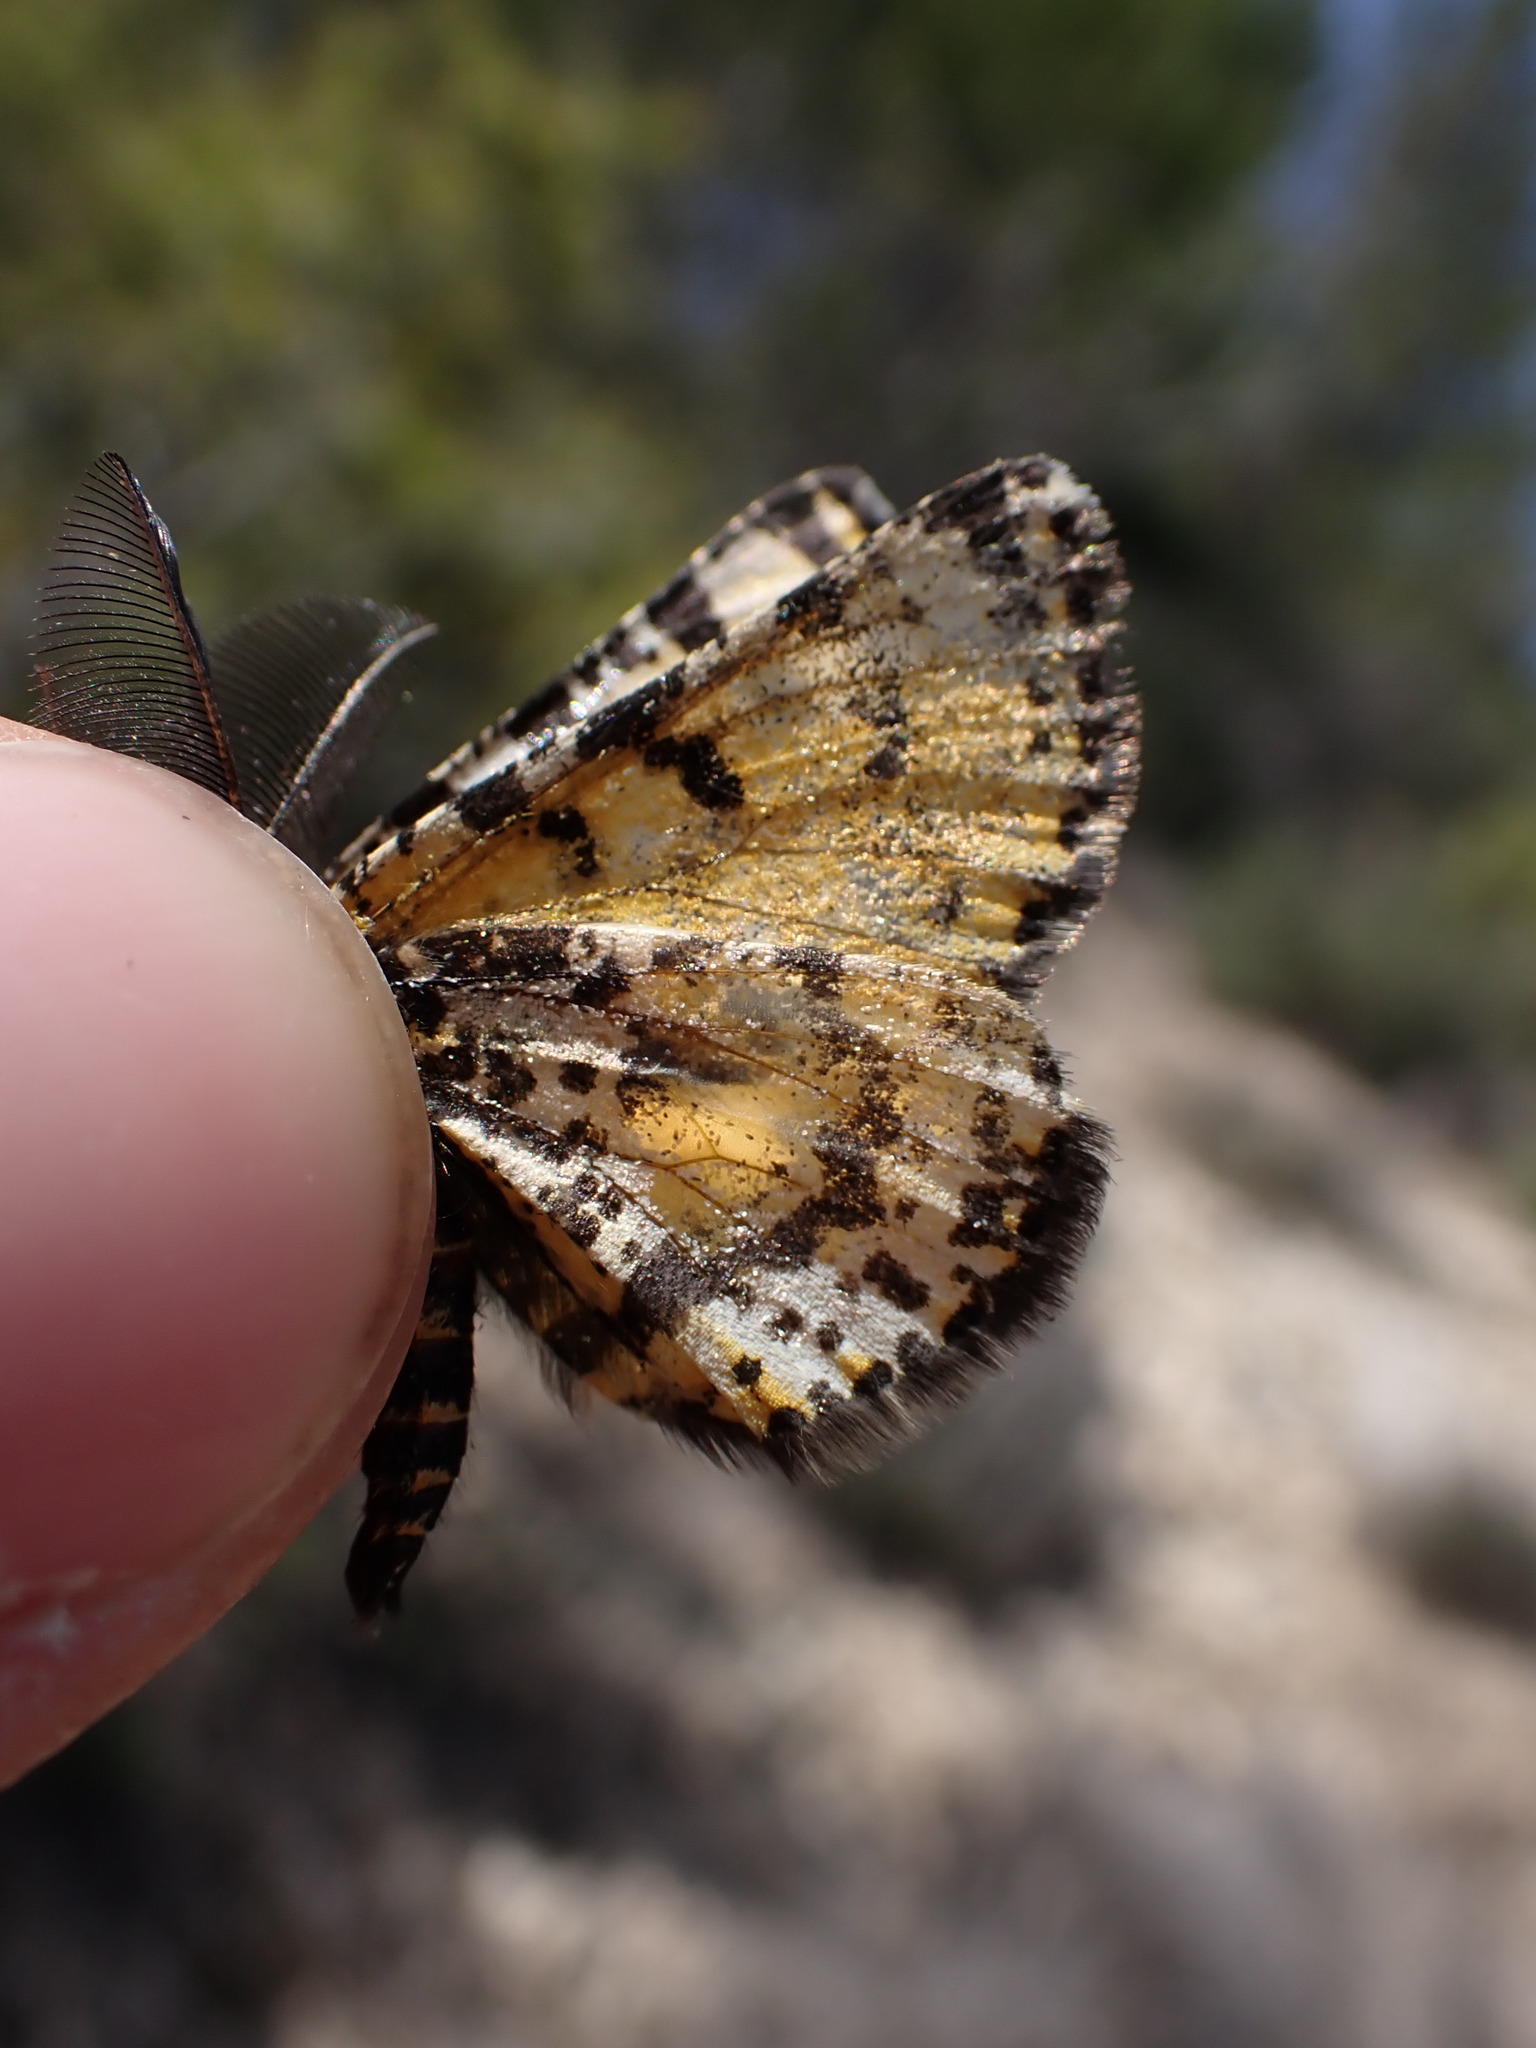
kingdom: Animalia
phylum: Arthropoda
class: Insecta
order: Lepidoptera
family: Geometridae
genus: Eurranthis
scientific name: Eurranthis plummistaria
